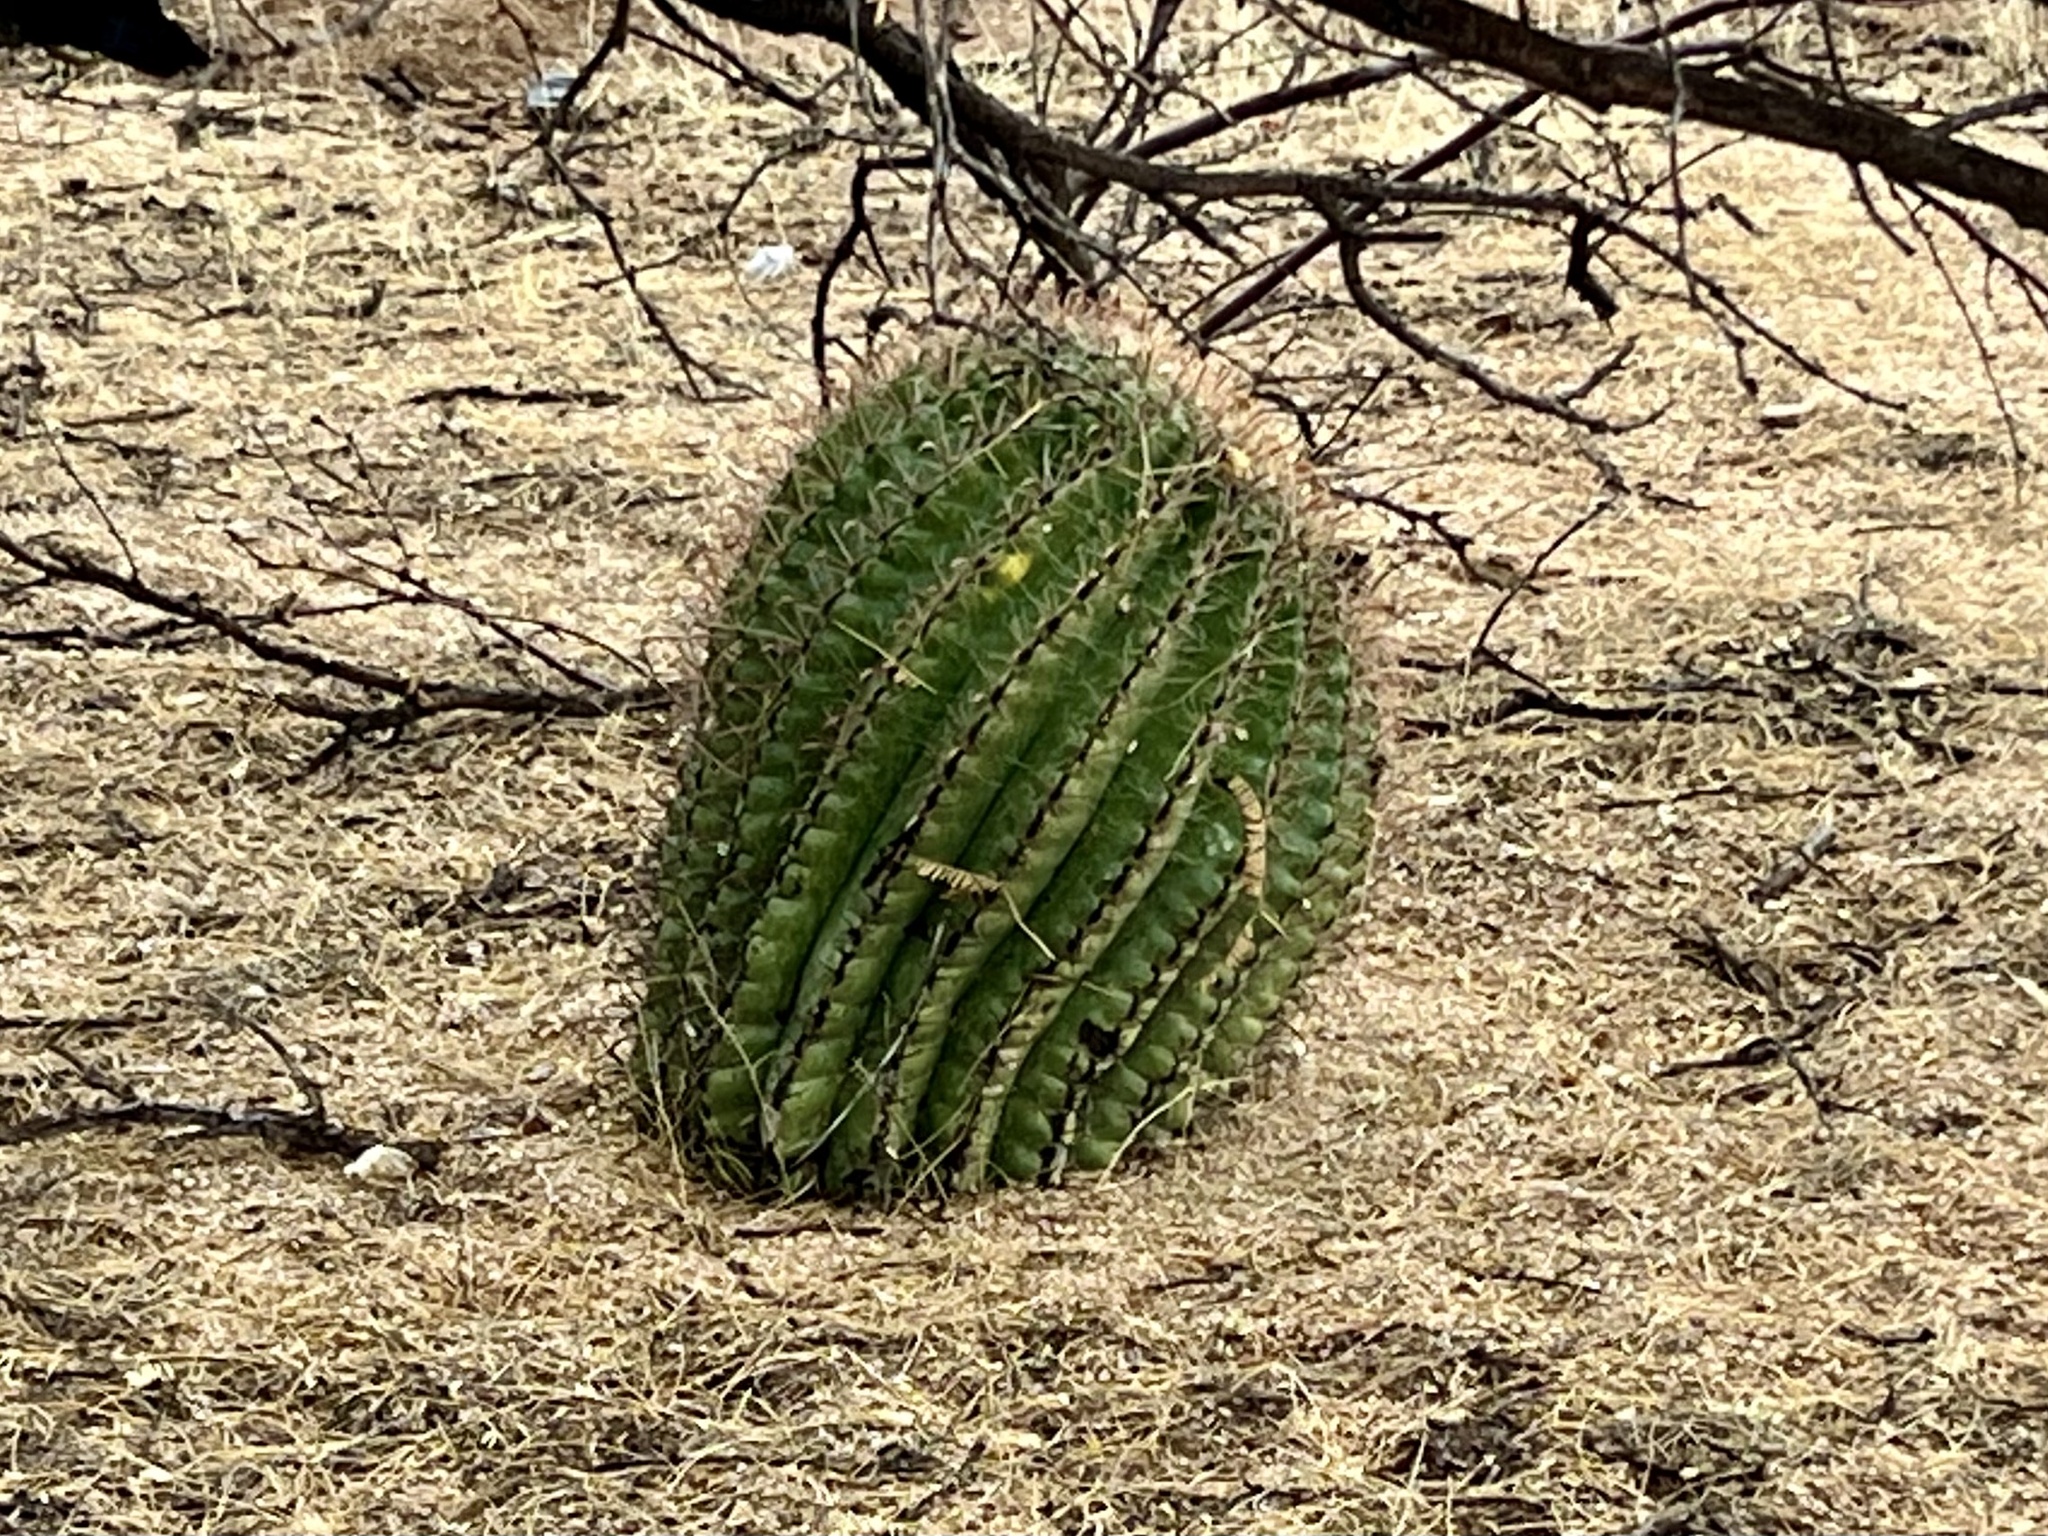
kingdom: Plantae
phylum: Tracheophyta
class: Magnoliopsida
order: Caryophyllales
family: Cactaceae
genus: Ferocactus
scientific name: Ferocactus wislizeni
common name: Candy barrel cactus
